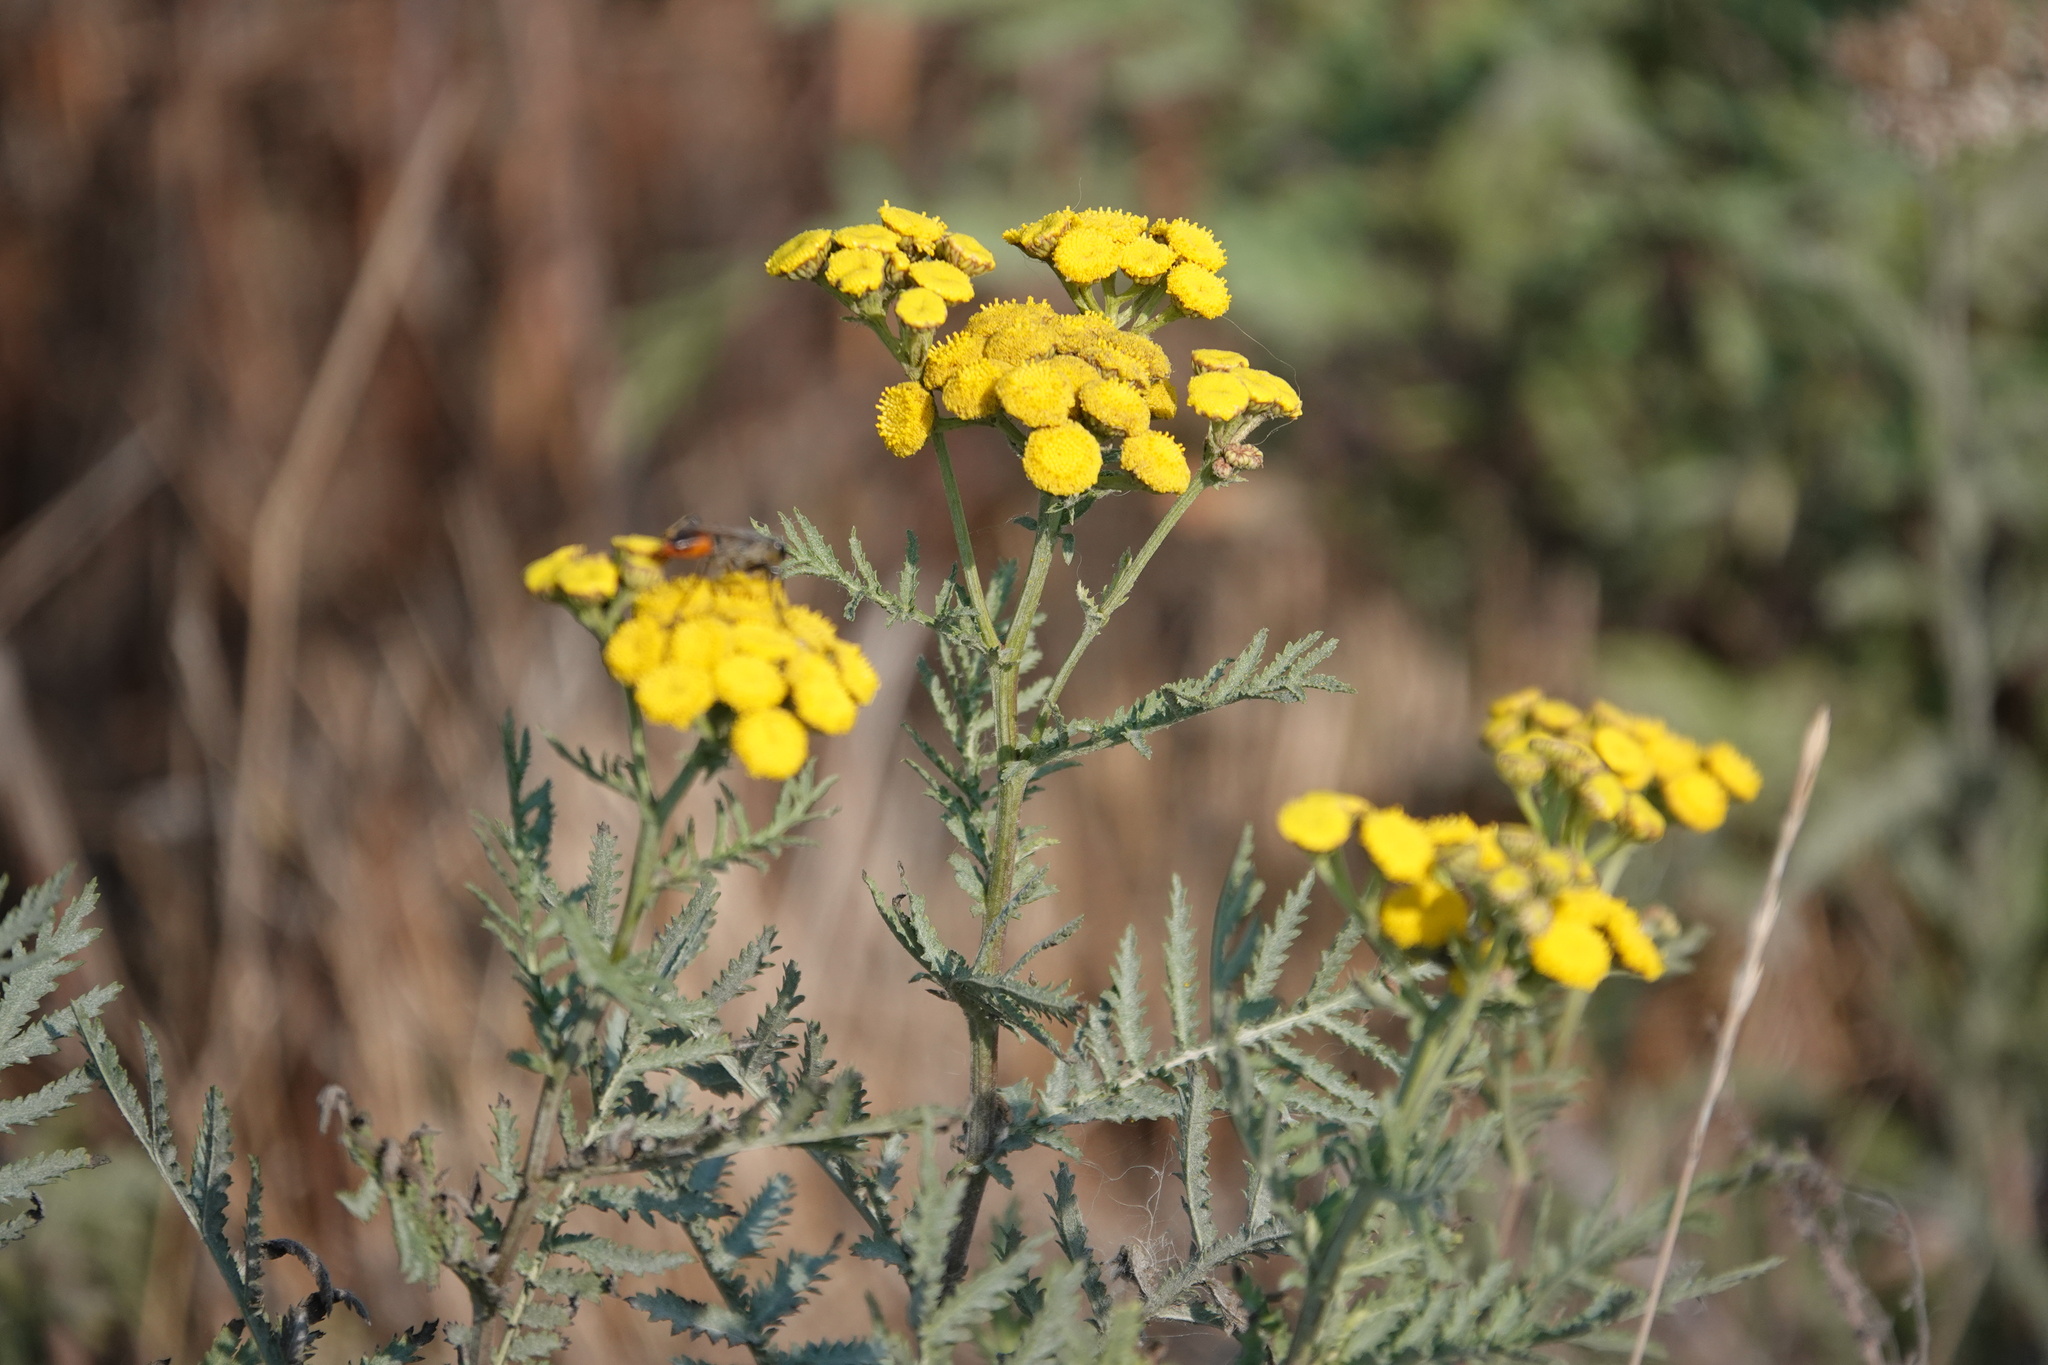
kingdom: Plantae
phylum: Tracheophyta
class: Magnoliopsida
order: Asterales
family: Asteraceae
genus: Tanacetum
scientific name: Tanacetum vulgare
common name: Common tansy
